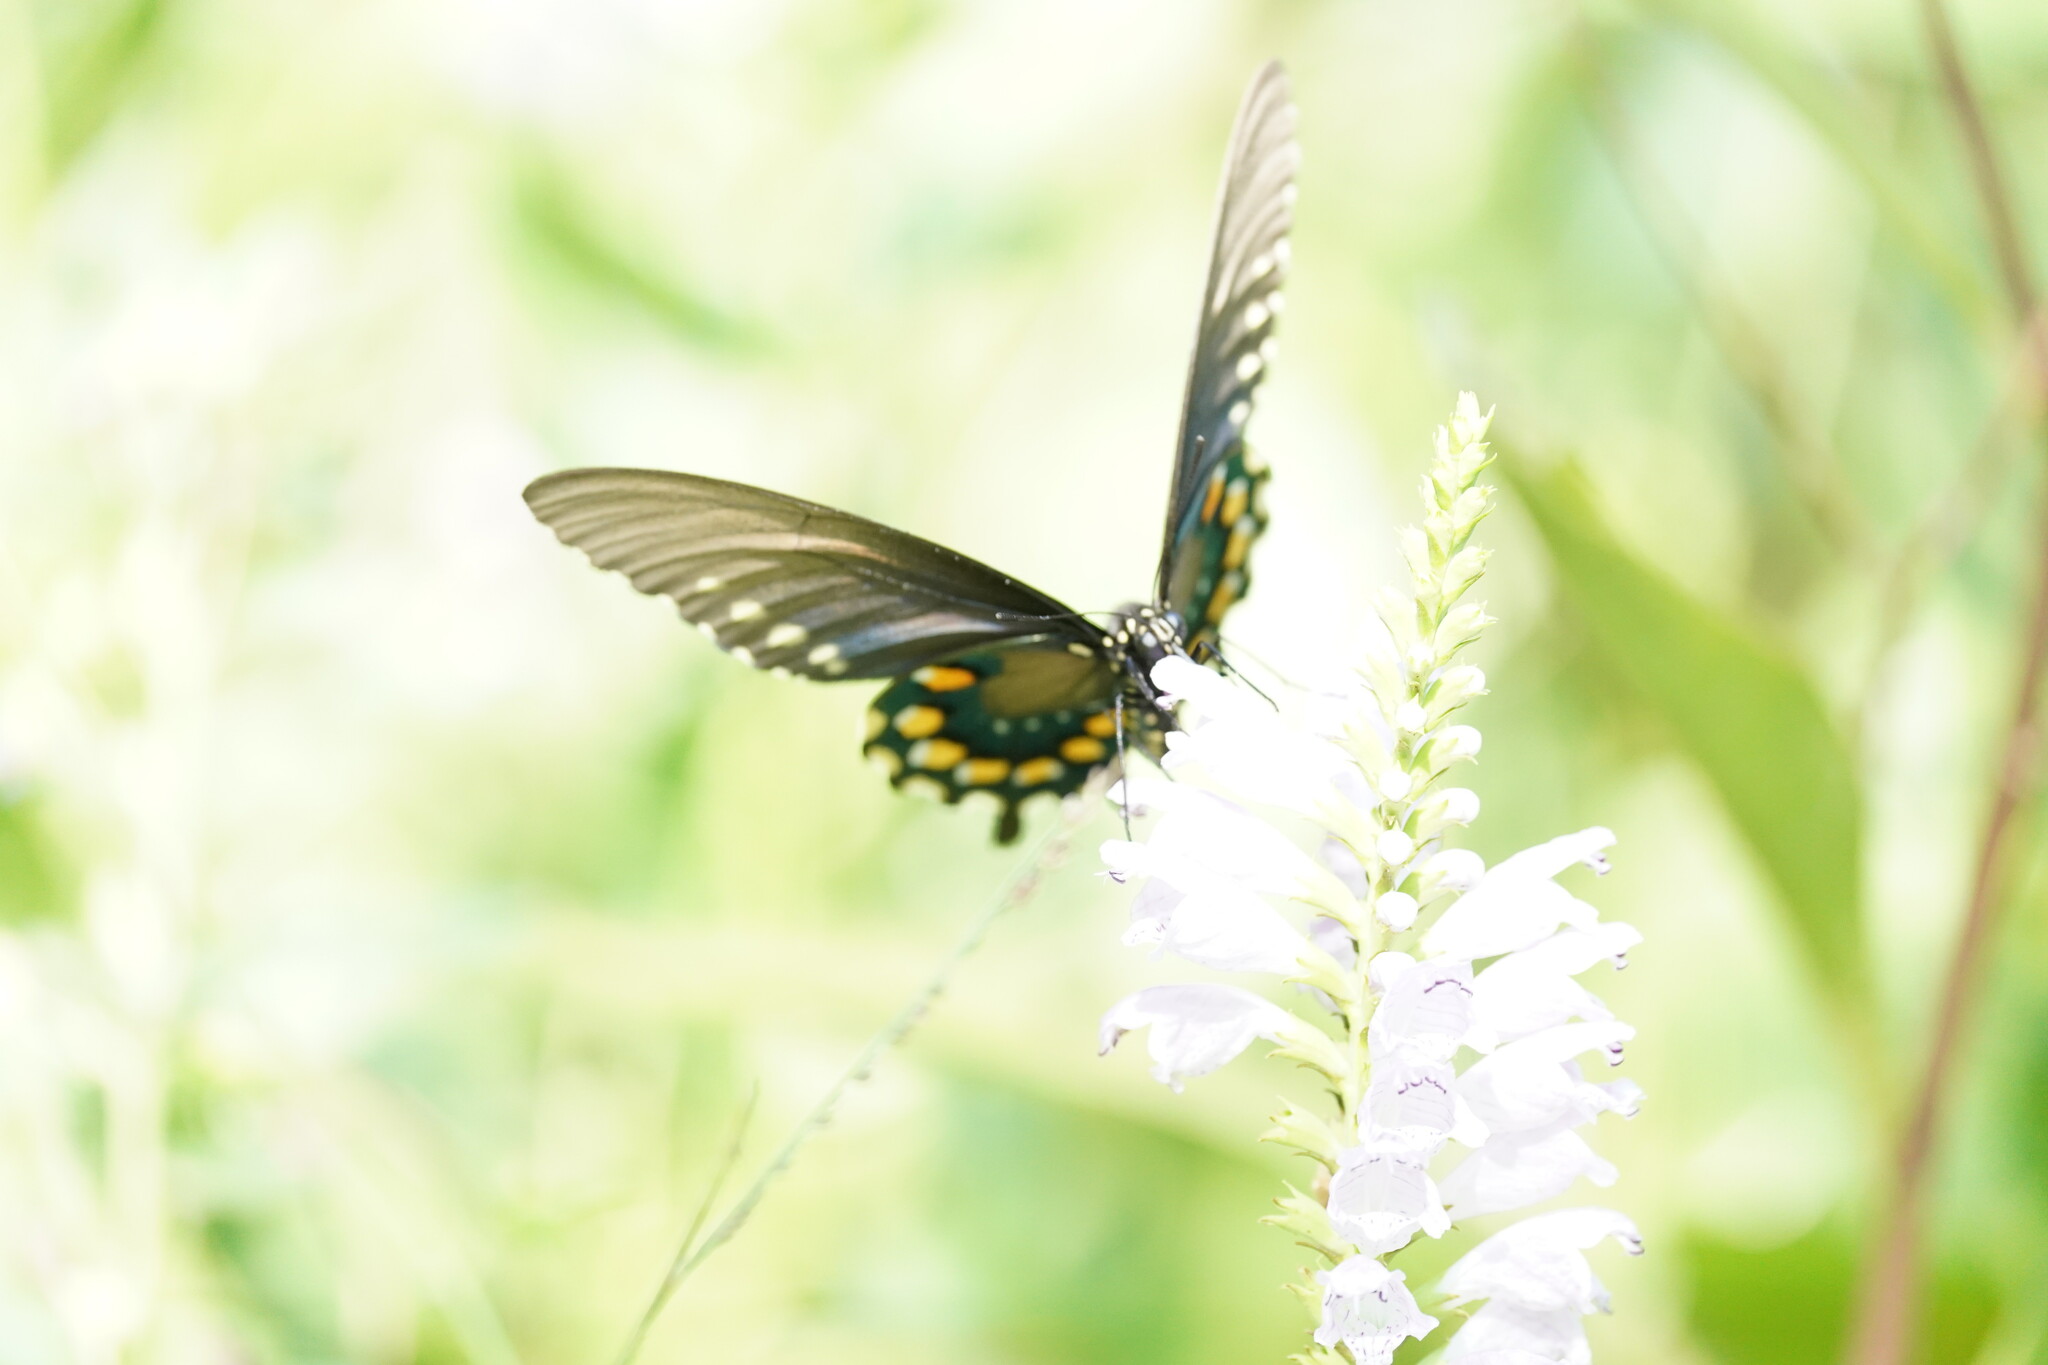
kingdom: Animalia
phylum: Arthropoda
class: Insecta
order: Lepidoptera
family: Papilionidae
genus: Battus
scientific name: Battus philenor
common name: Pipevine swallowtail
